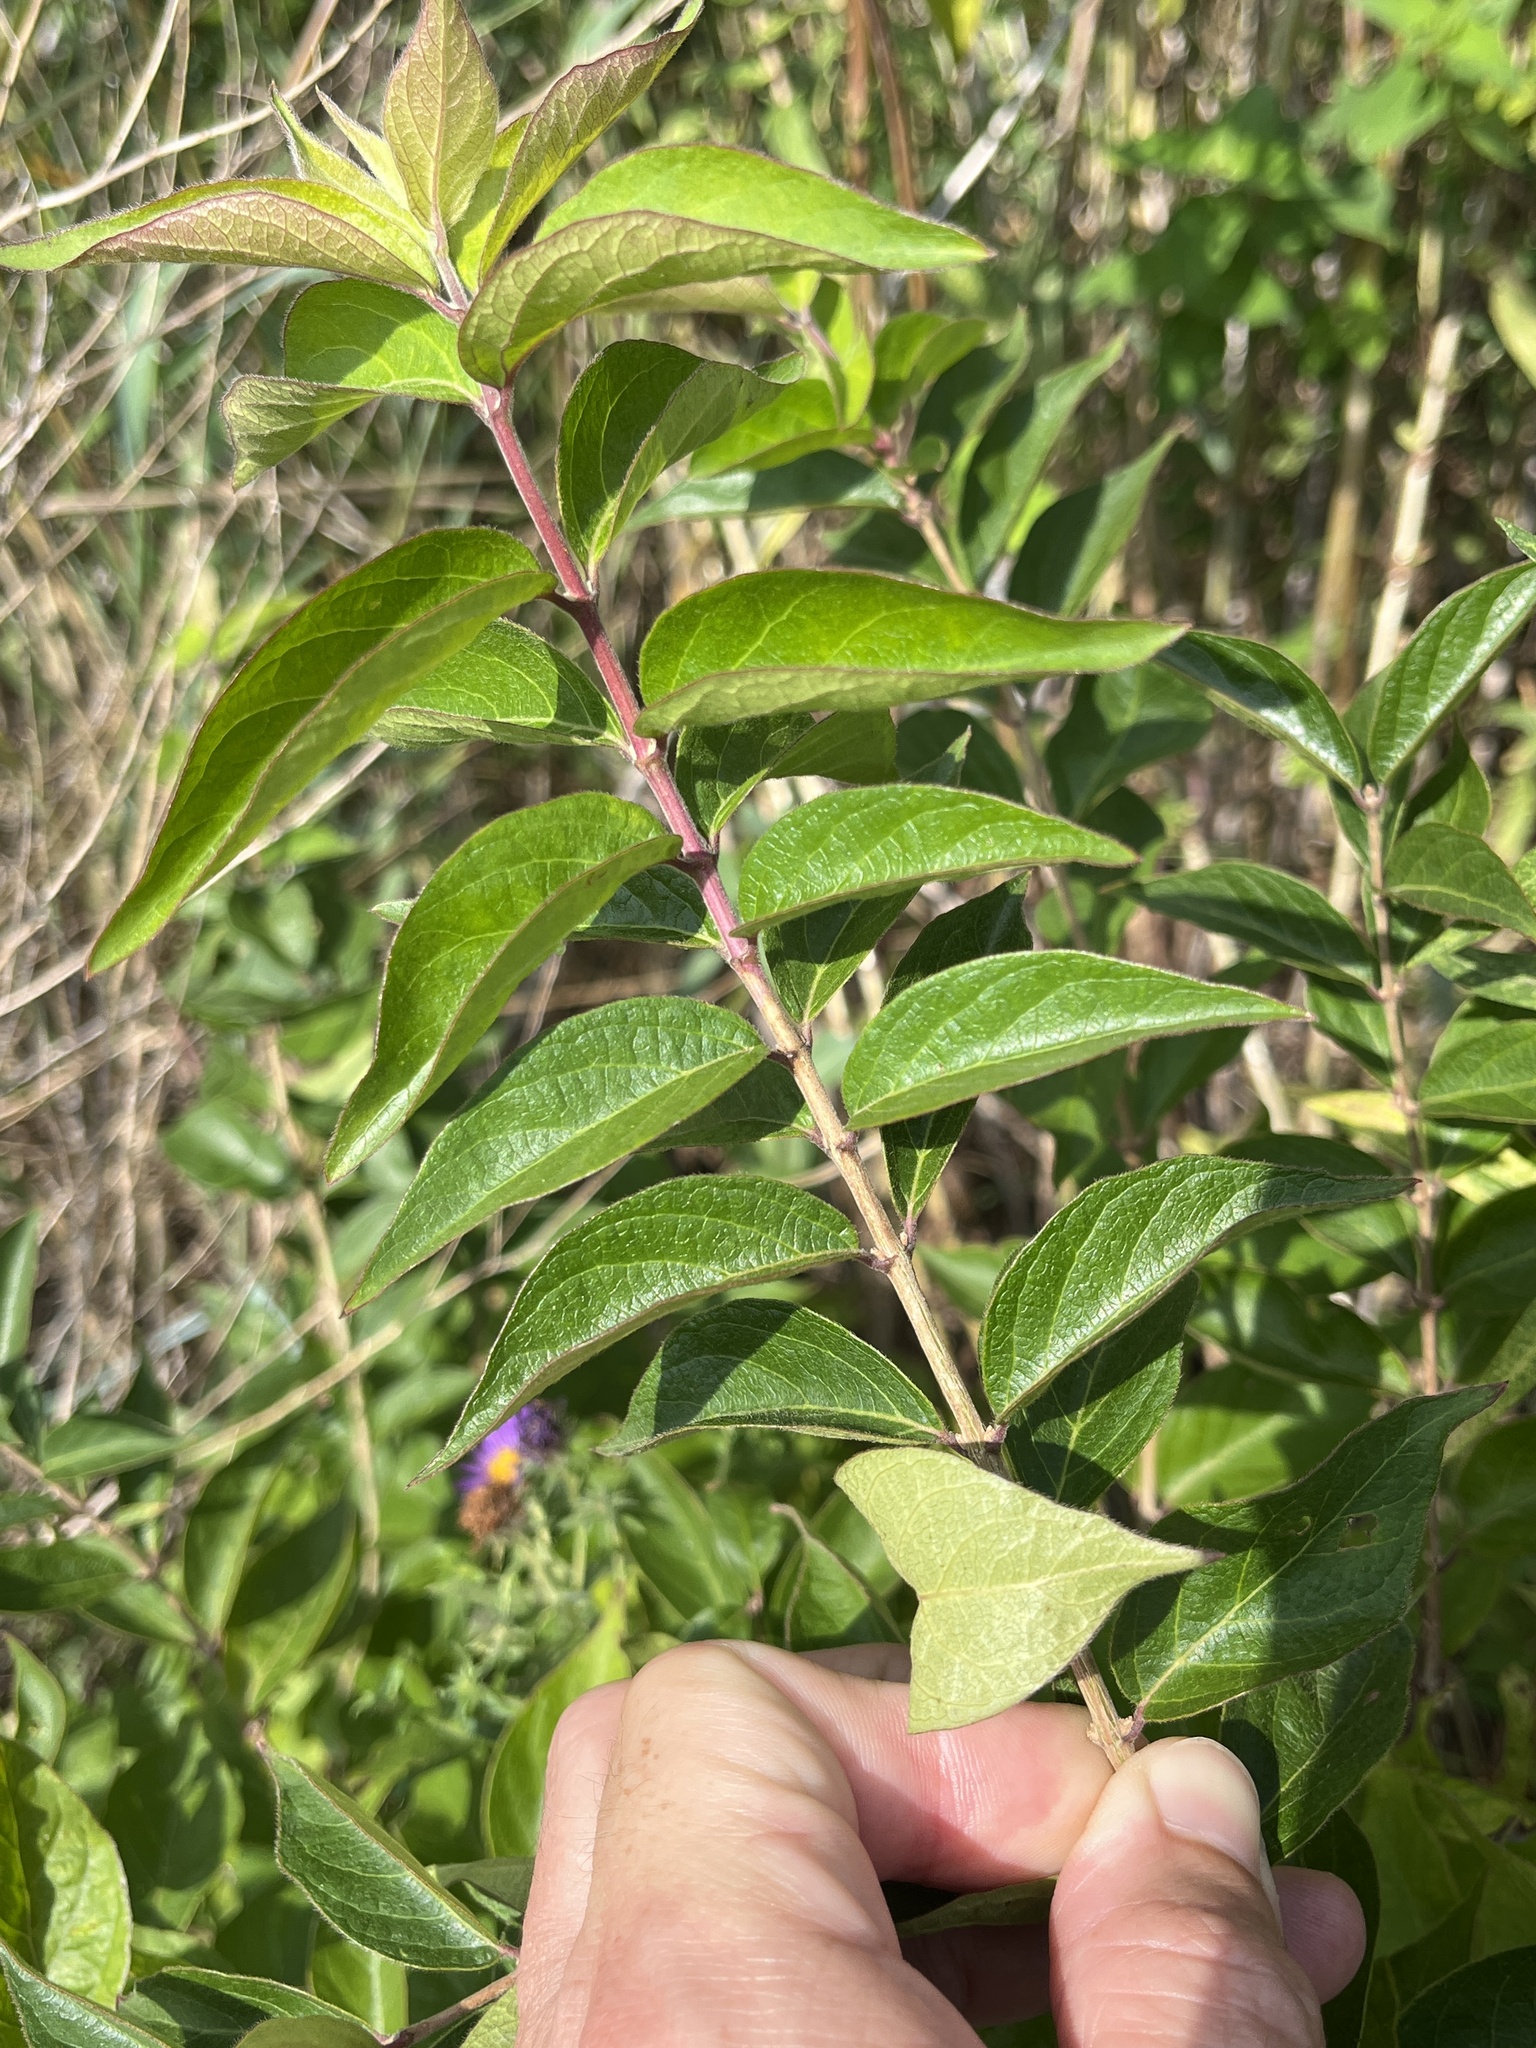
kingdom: Plantae
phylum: Tracheophyta
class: Magnoliopsida
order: Dipsacales
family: Caprifoliaceae
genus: Lonicera
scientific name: Lonicera maackii
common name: Amur honeysuckle
